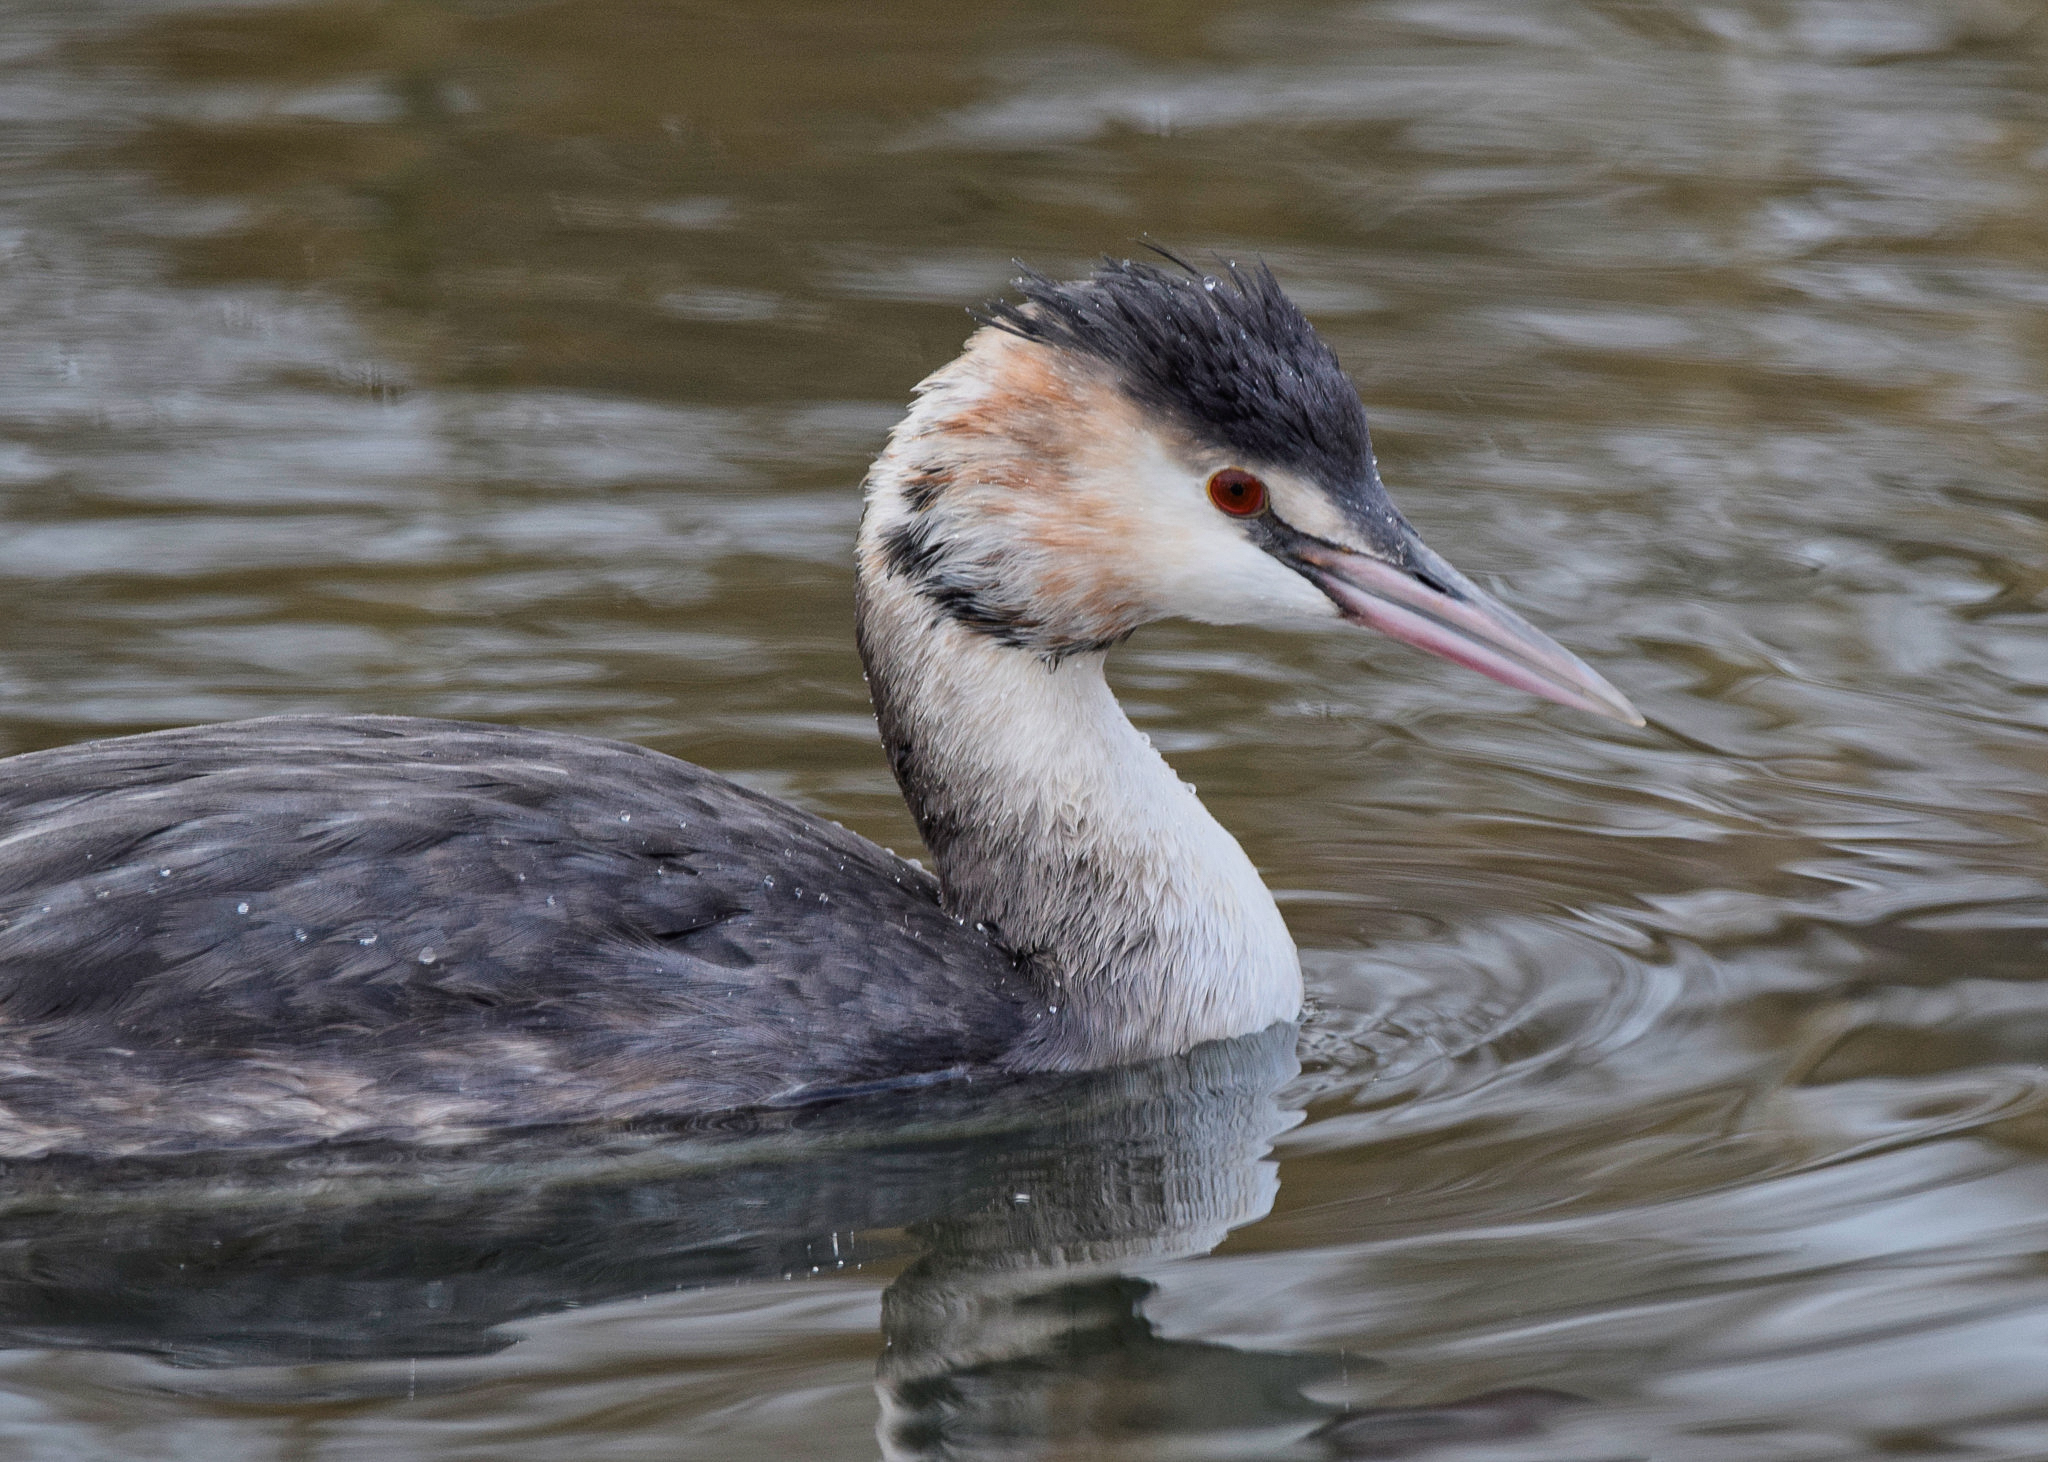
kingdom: Animalia
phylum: Chordata
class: Aves
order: Podicipediformes
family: Podicipedidae
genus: Podiceps
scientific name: Podiceps cristatus
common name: Great crested grebe
